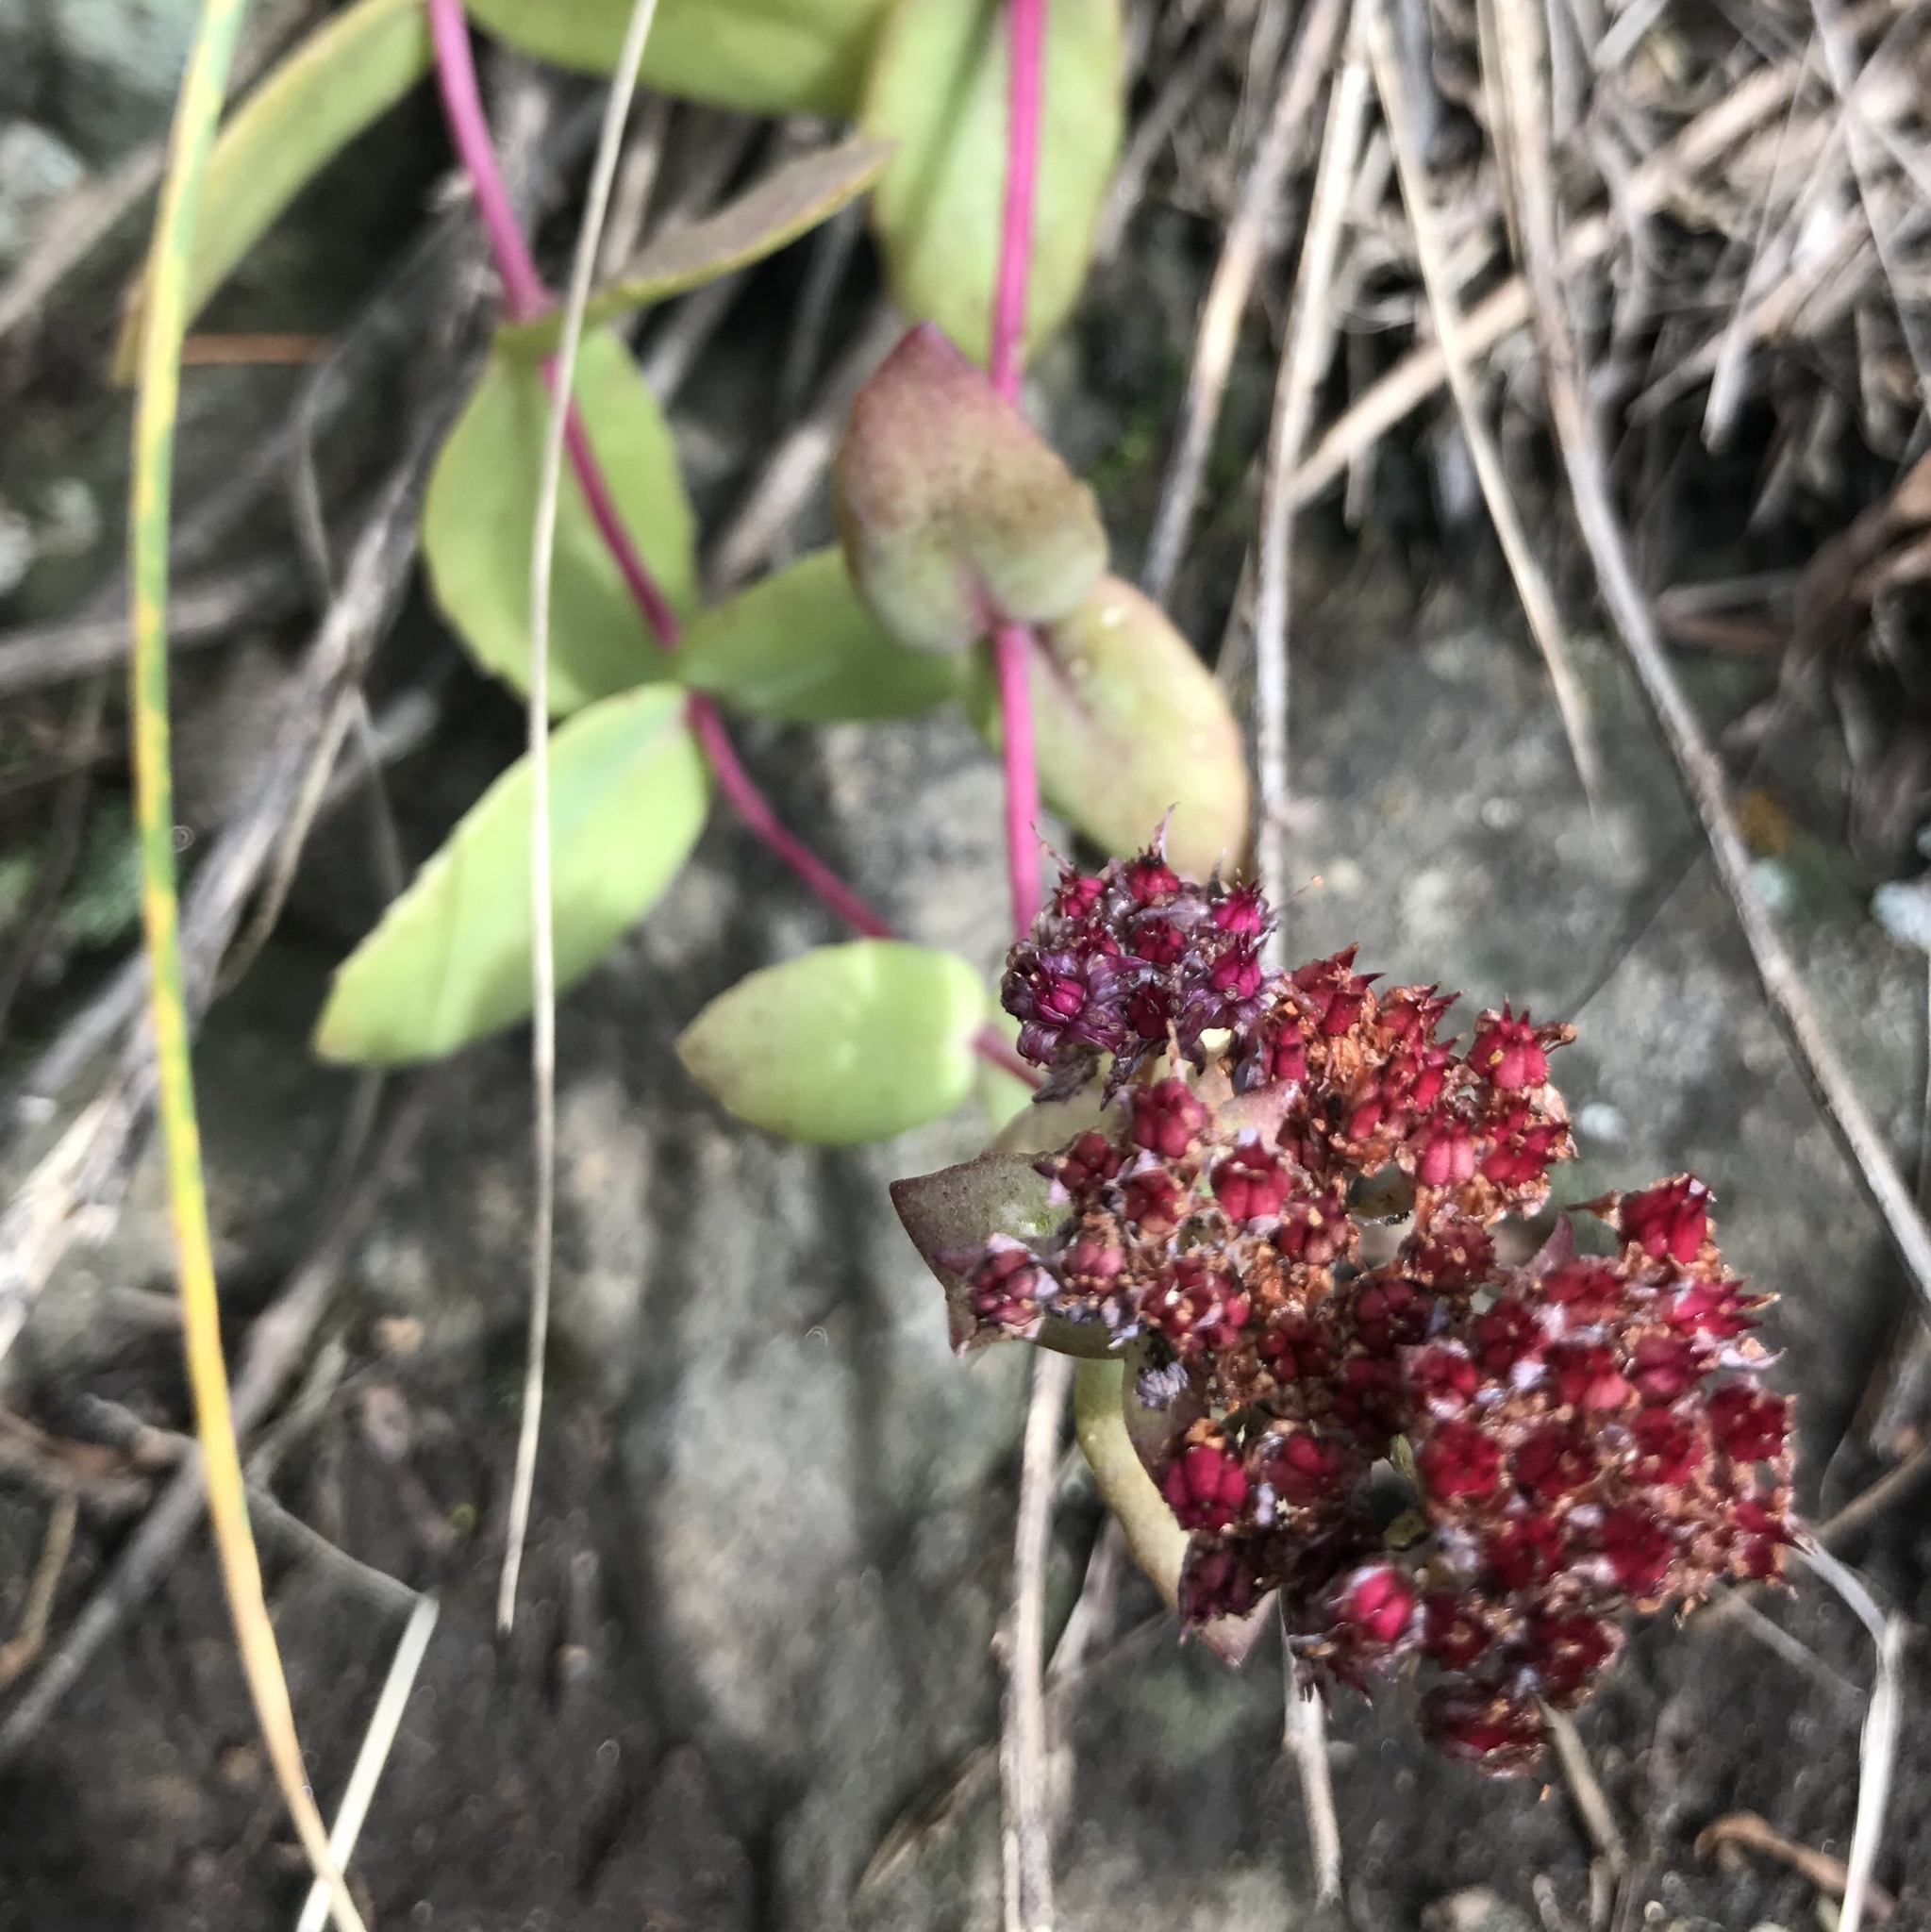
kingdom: Plantae
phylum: Tracheophyta
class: Magnoliopsida
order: Saxifragales
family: Crassulaceae
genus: Hylotelephium
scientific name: Hylotelephium telephium
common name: Live-forever
